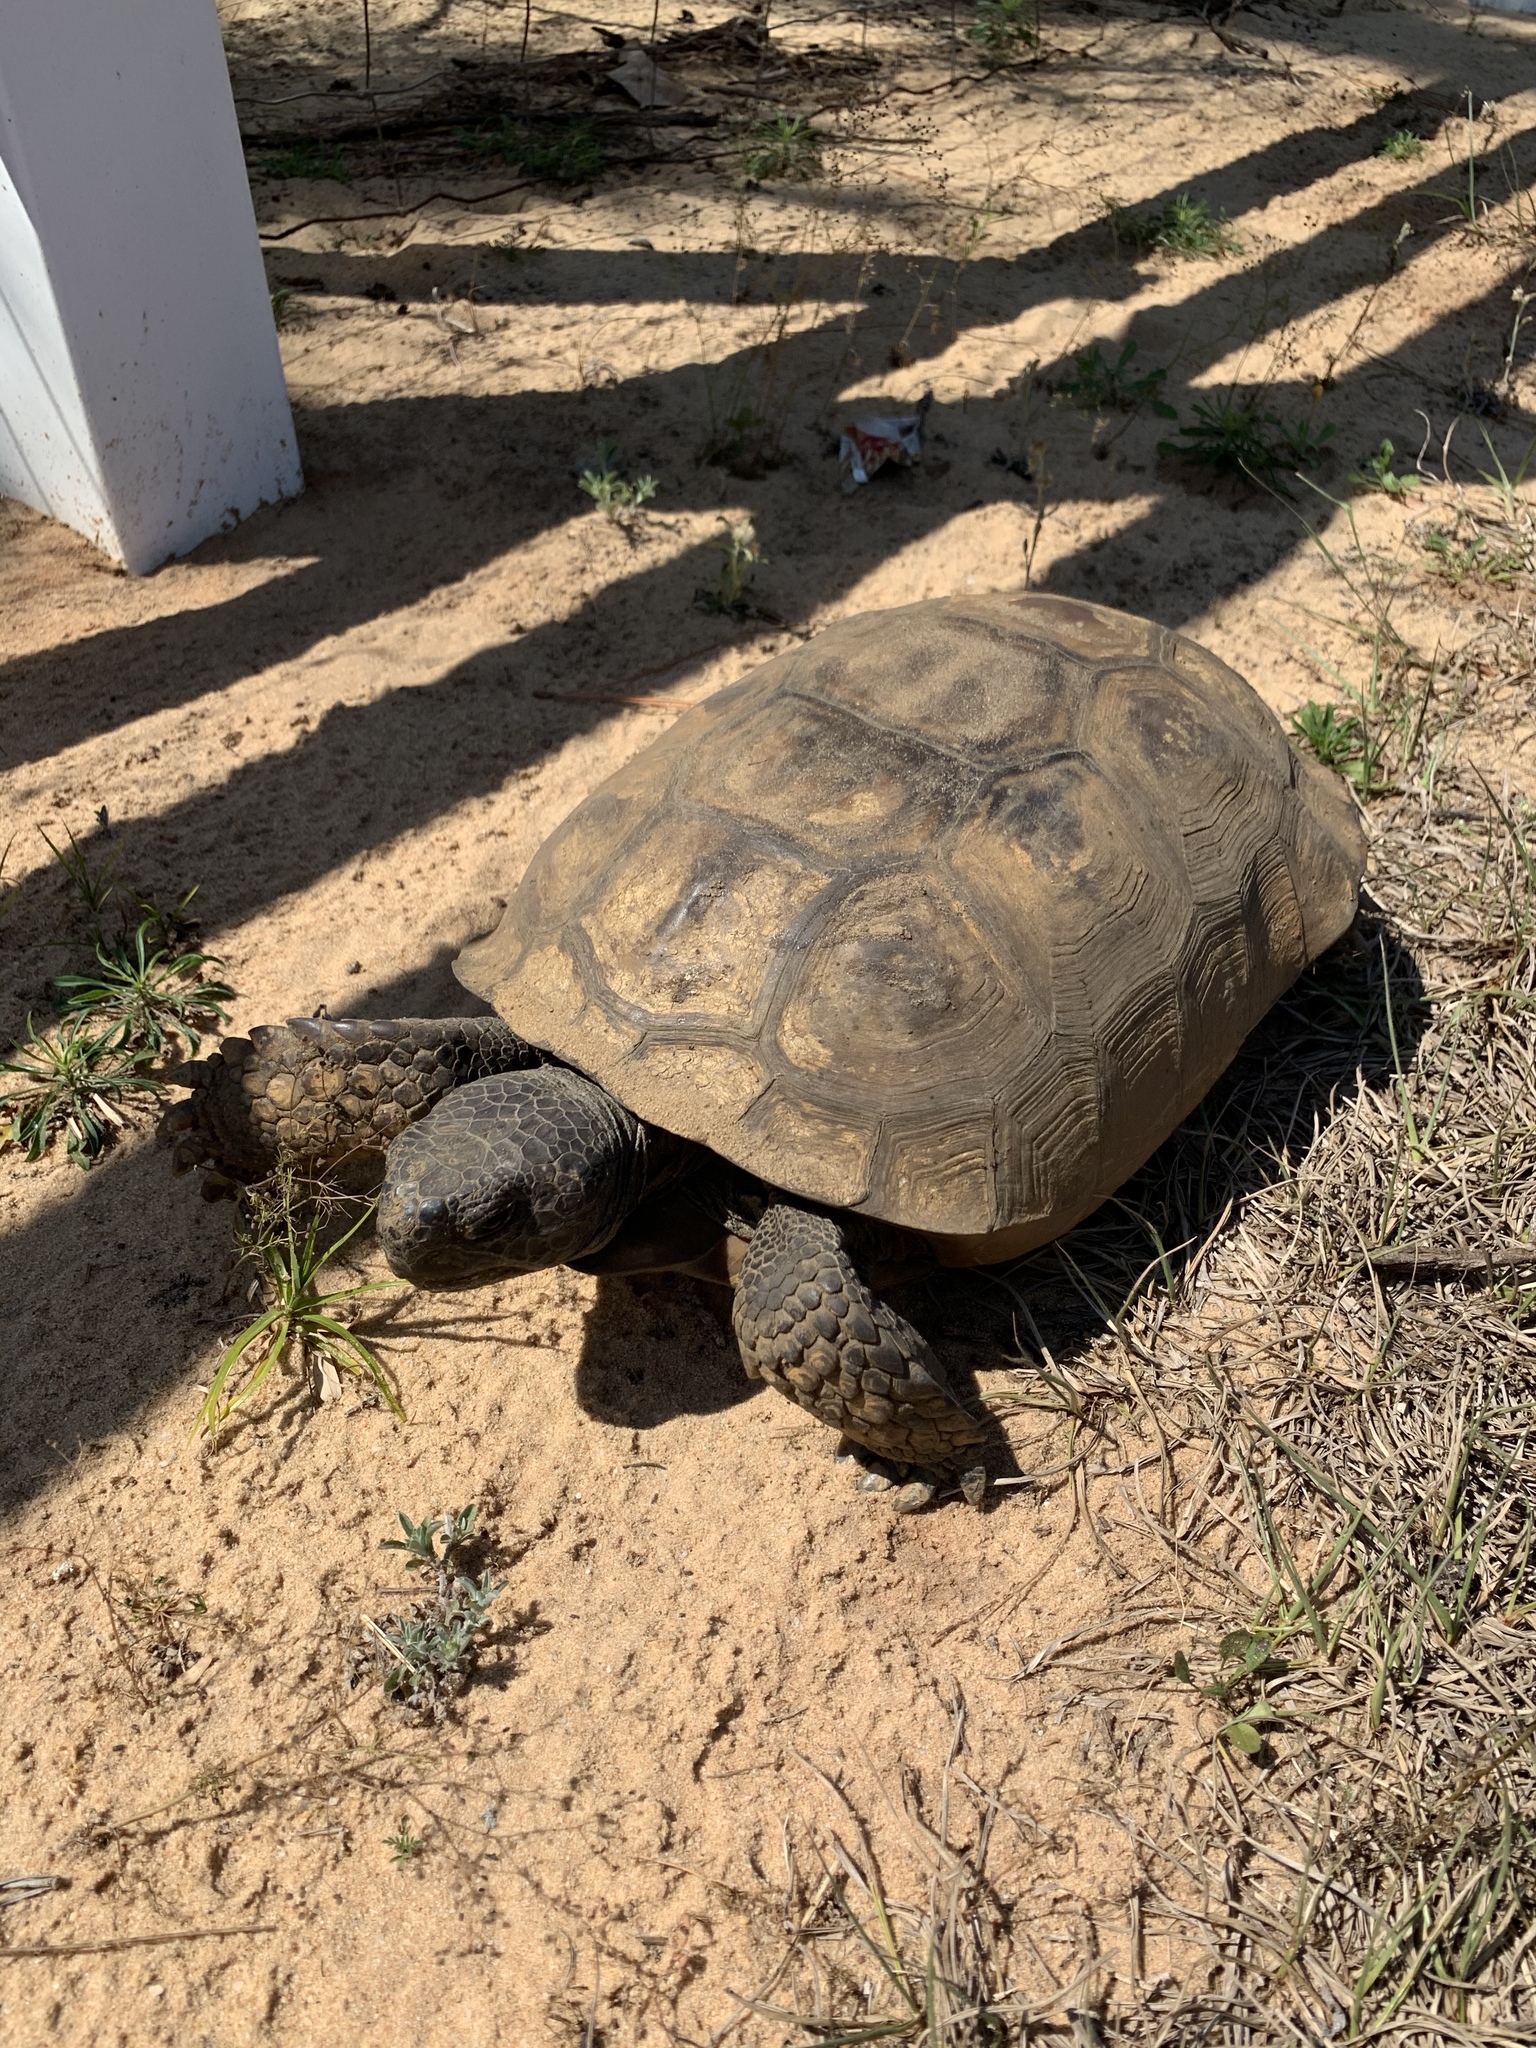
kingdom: Animalia
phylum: Chordata
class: Testudines
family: Testudinidae
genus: Gopherus
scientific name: Gopherus polyphemus
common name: Florida gopher tortoise
